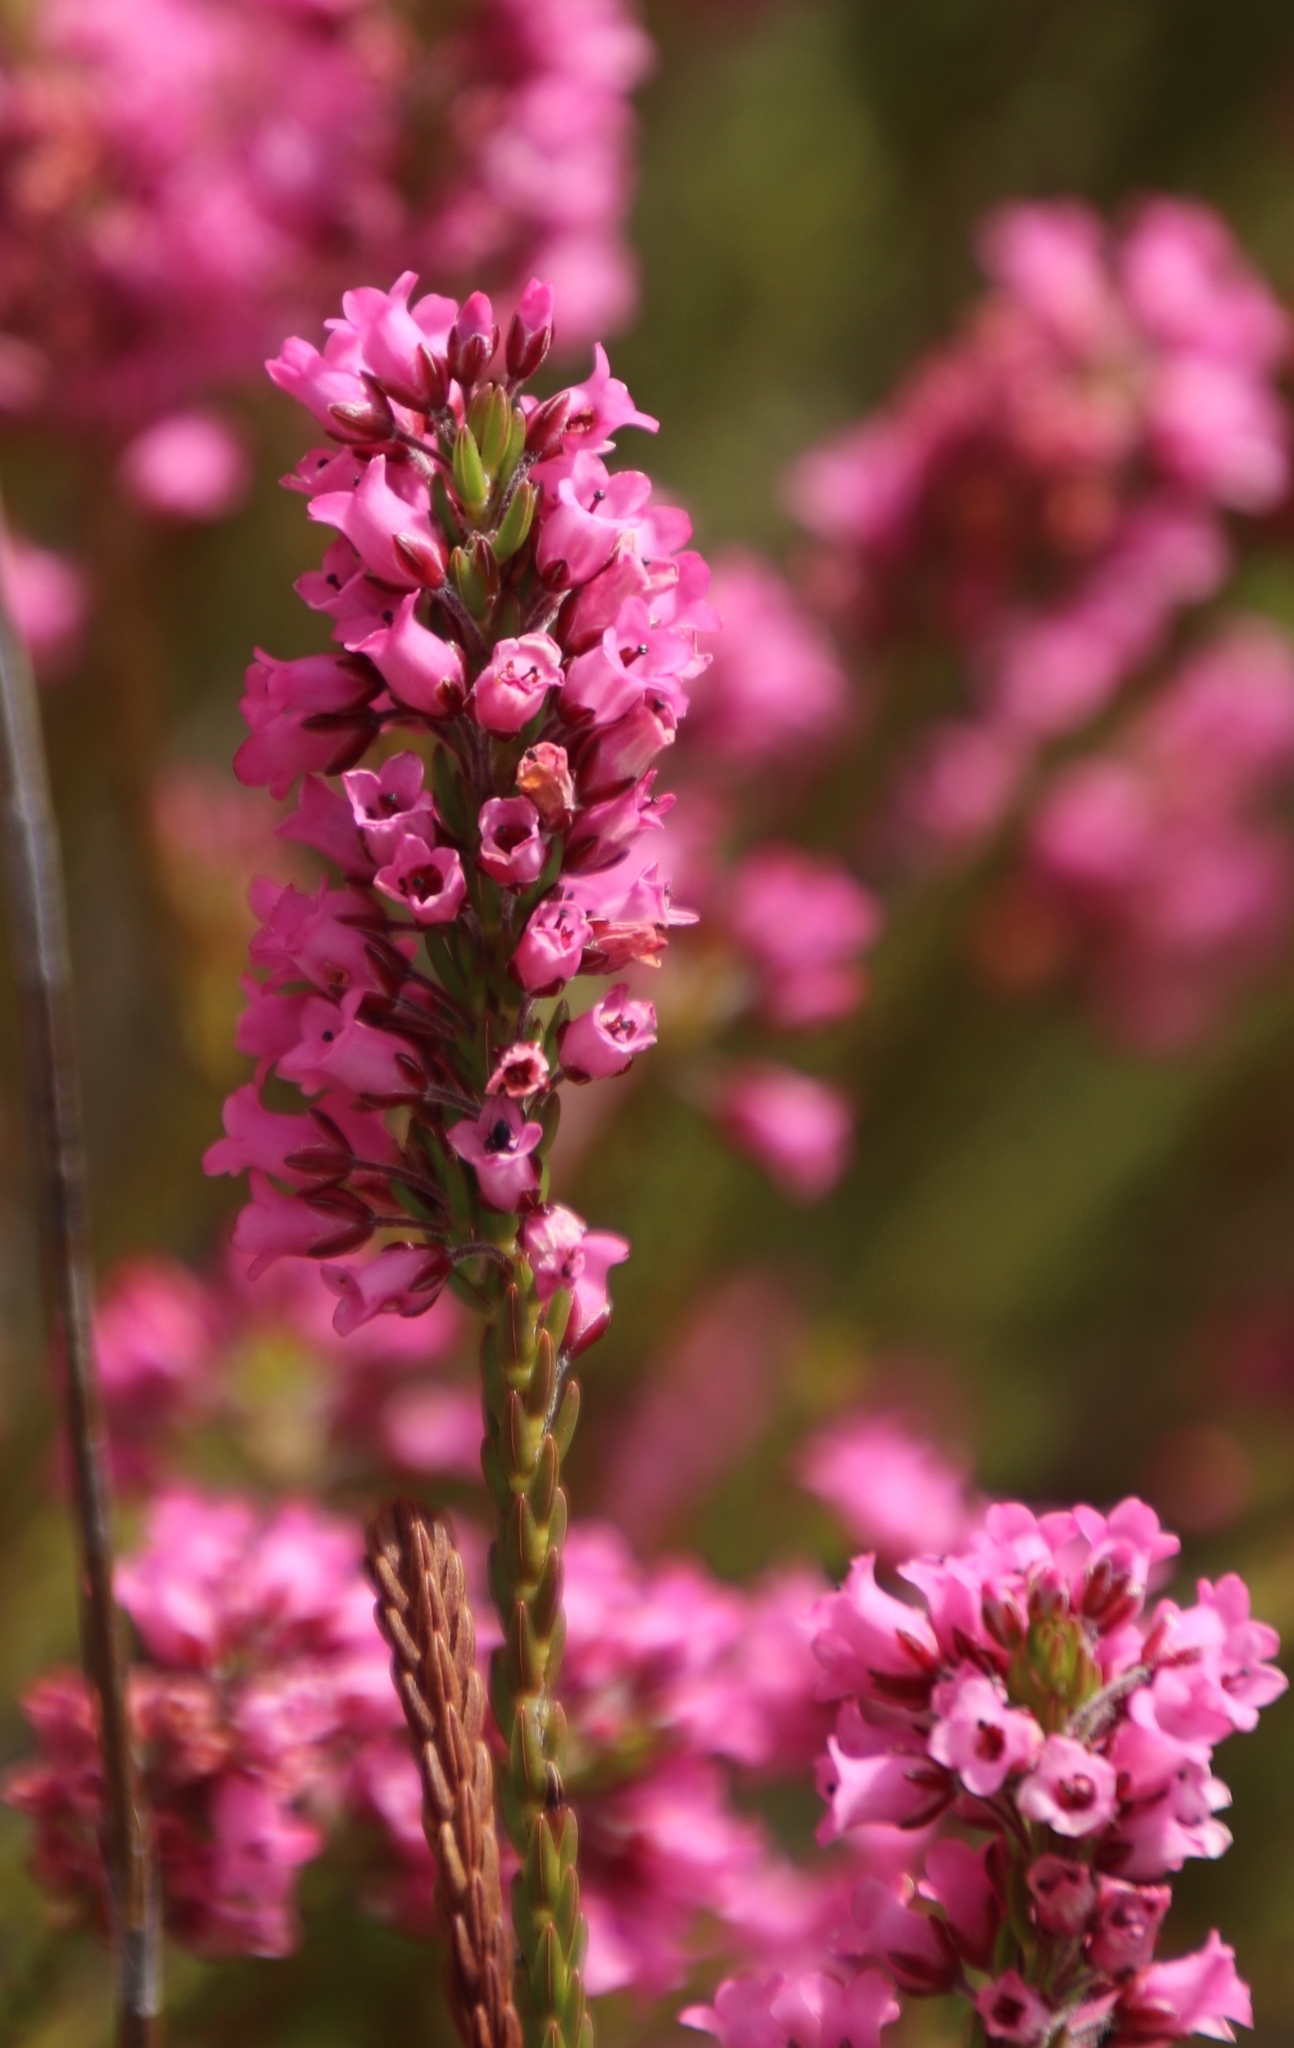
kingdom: Plantae
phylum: Tracheophyta
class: Magnoliopsida
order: Ericales
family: Ericaceae
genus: Erica
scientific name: Erica longiaristata
